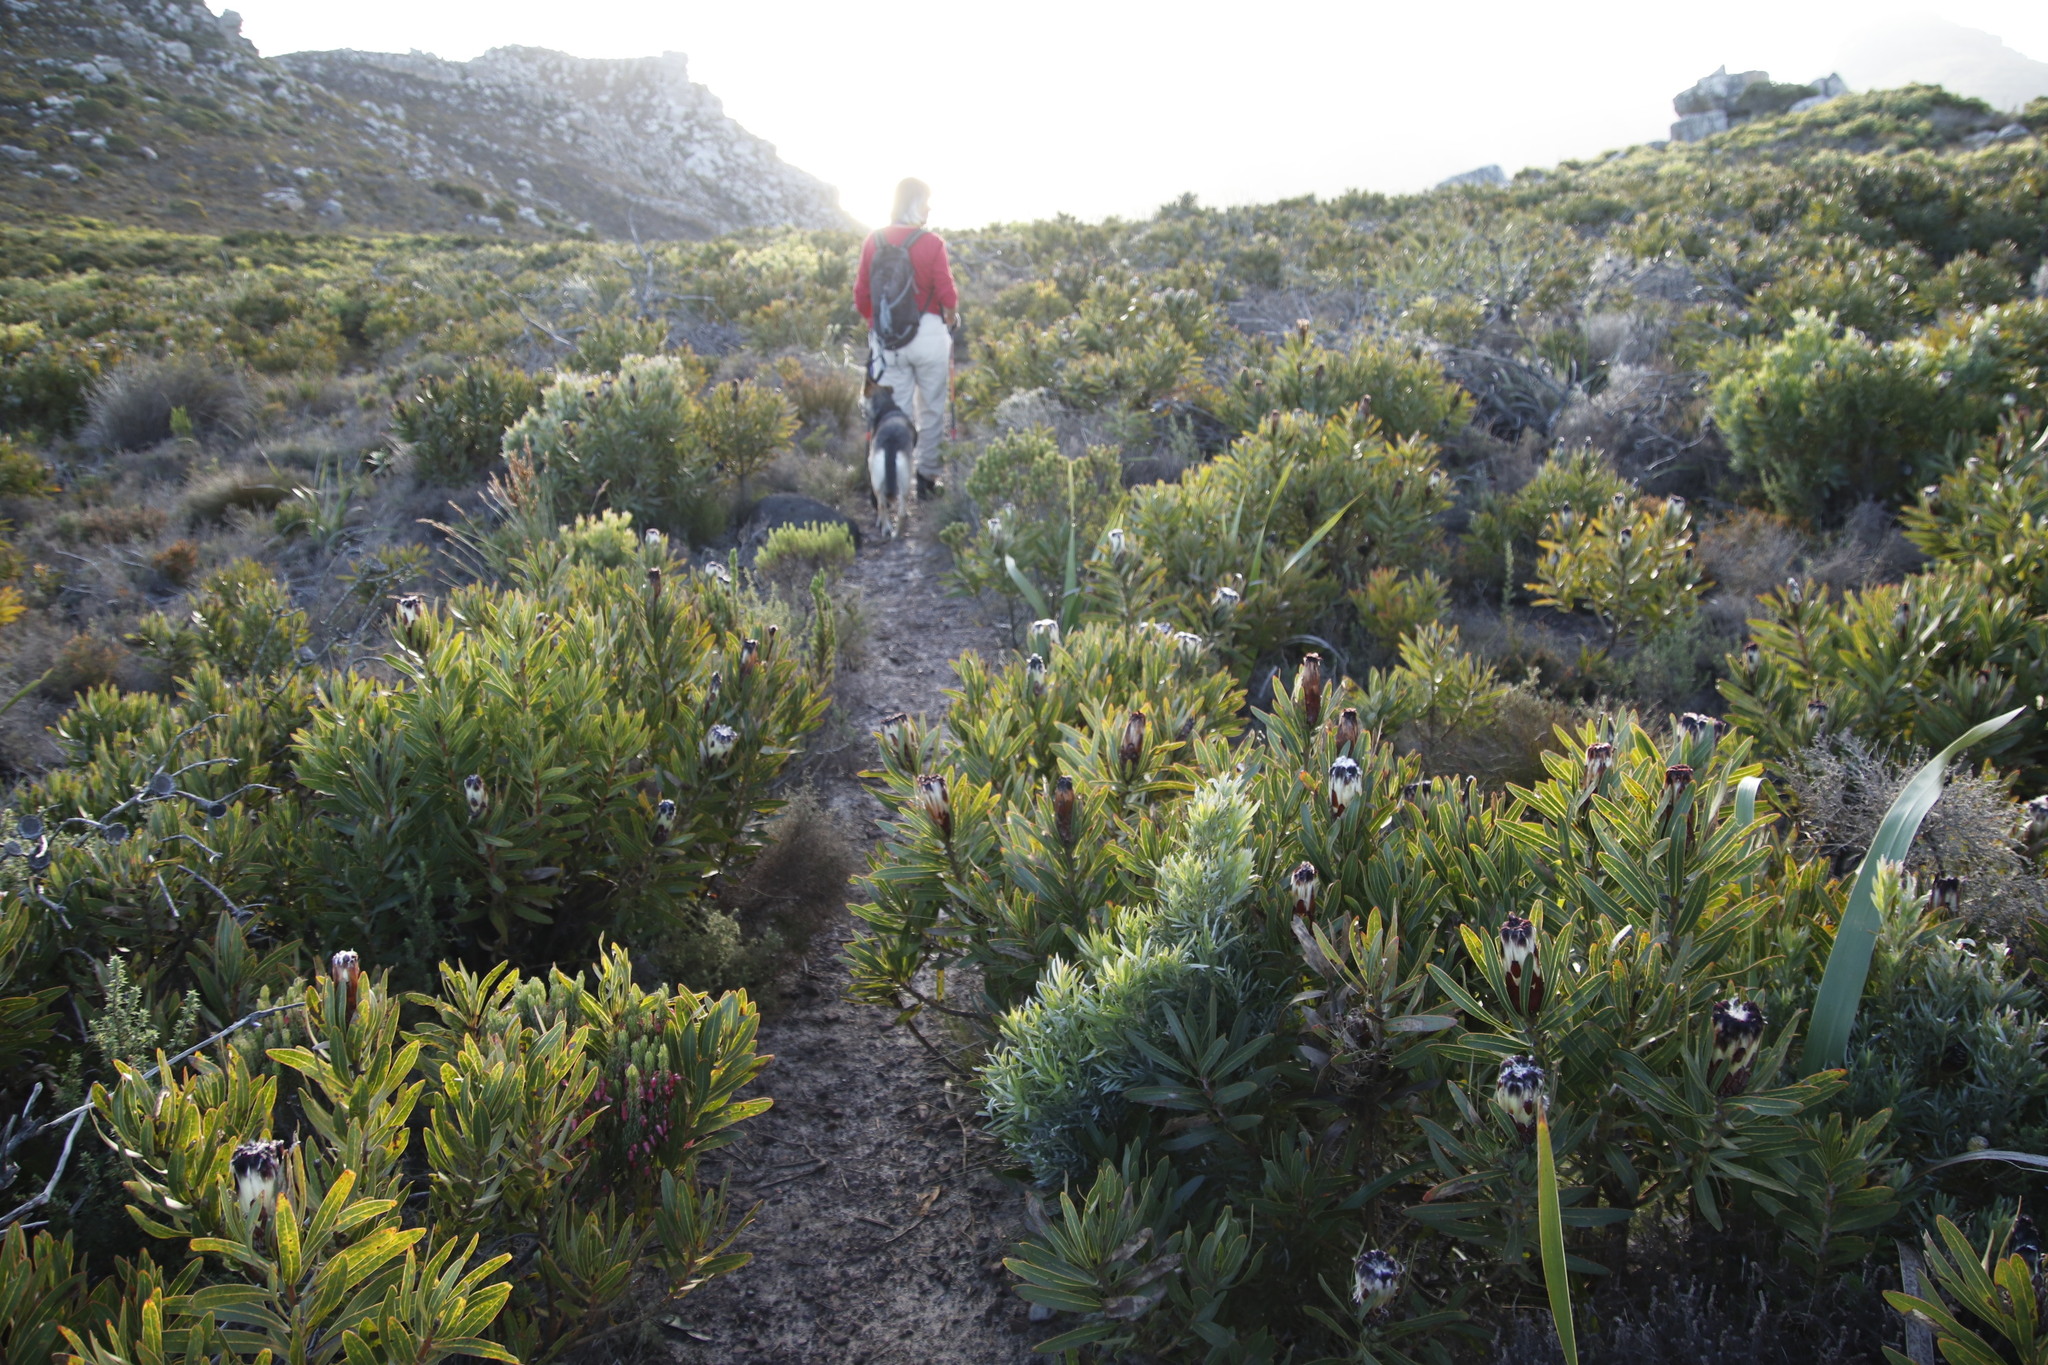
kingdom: Plantae
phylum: Tracheophyta
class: Magnoliopsida
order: Proteales
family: Proteaceae
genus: Protea
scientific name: Protea lepidocarpodendron
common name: Black-bearded protea
